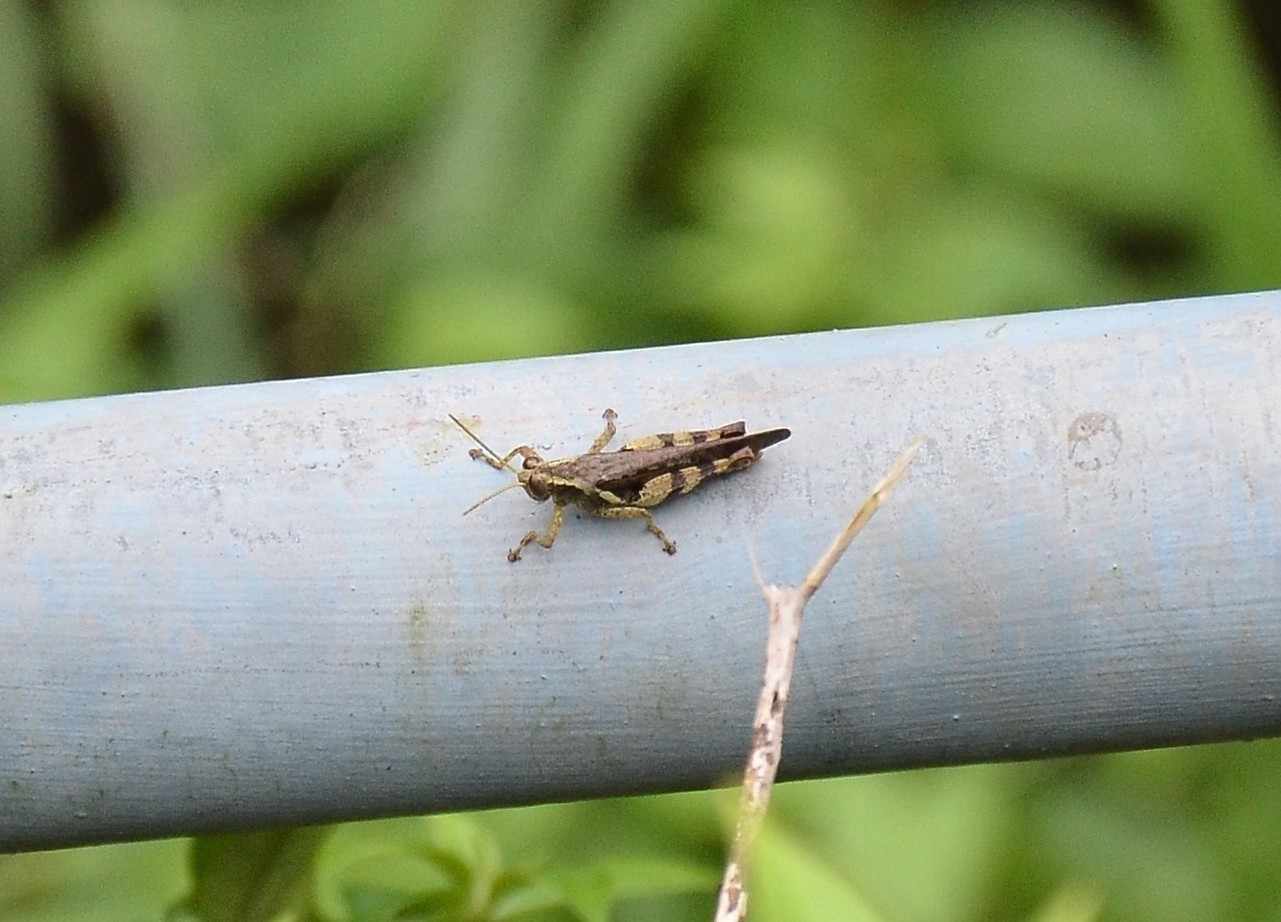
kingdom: Animalia
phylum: Arthropoda
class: Insecta
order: Orthoptera
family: Acrididae
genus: Xenocatantops
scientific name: Xenocatantops humile
